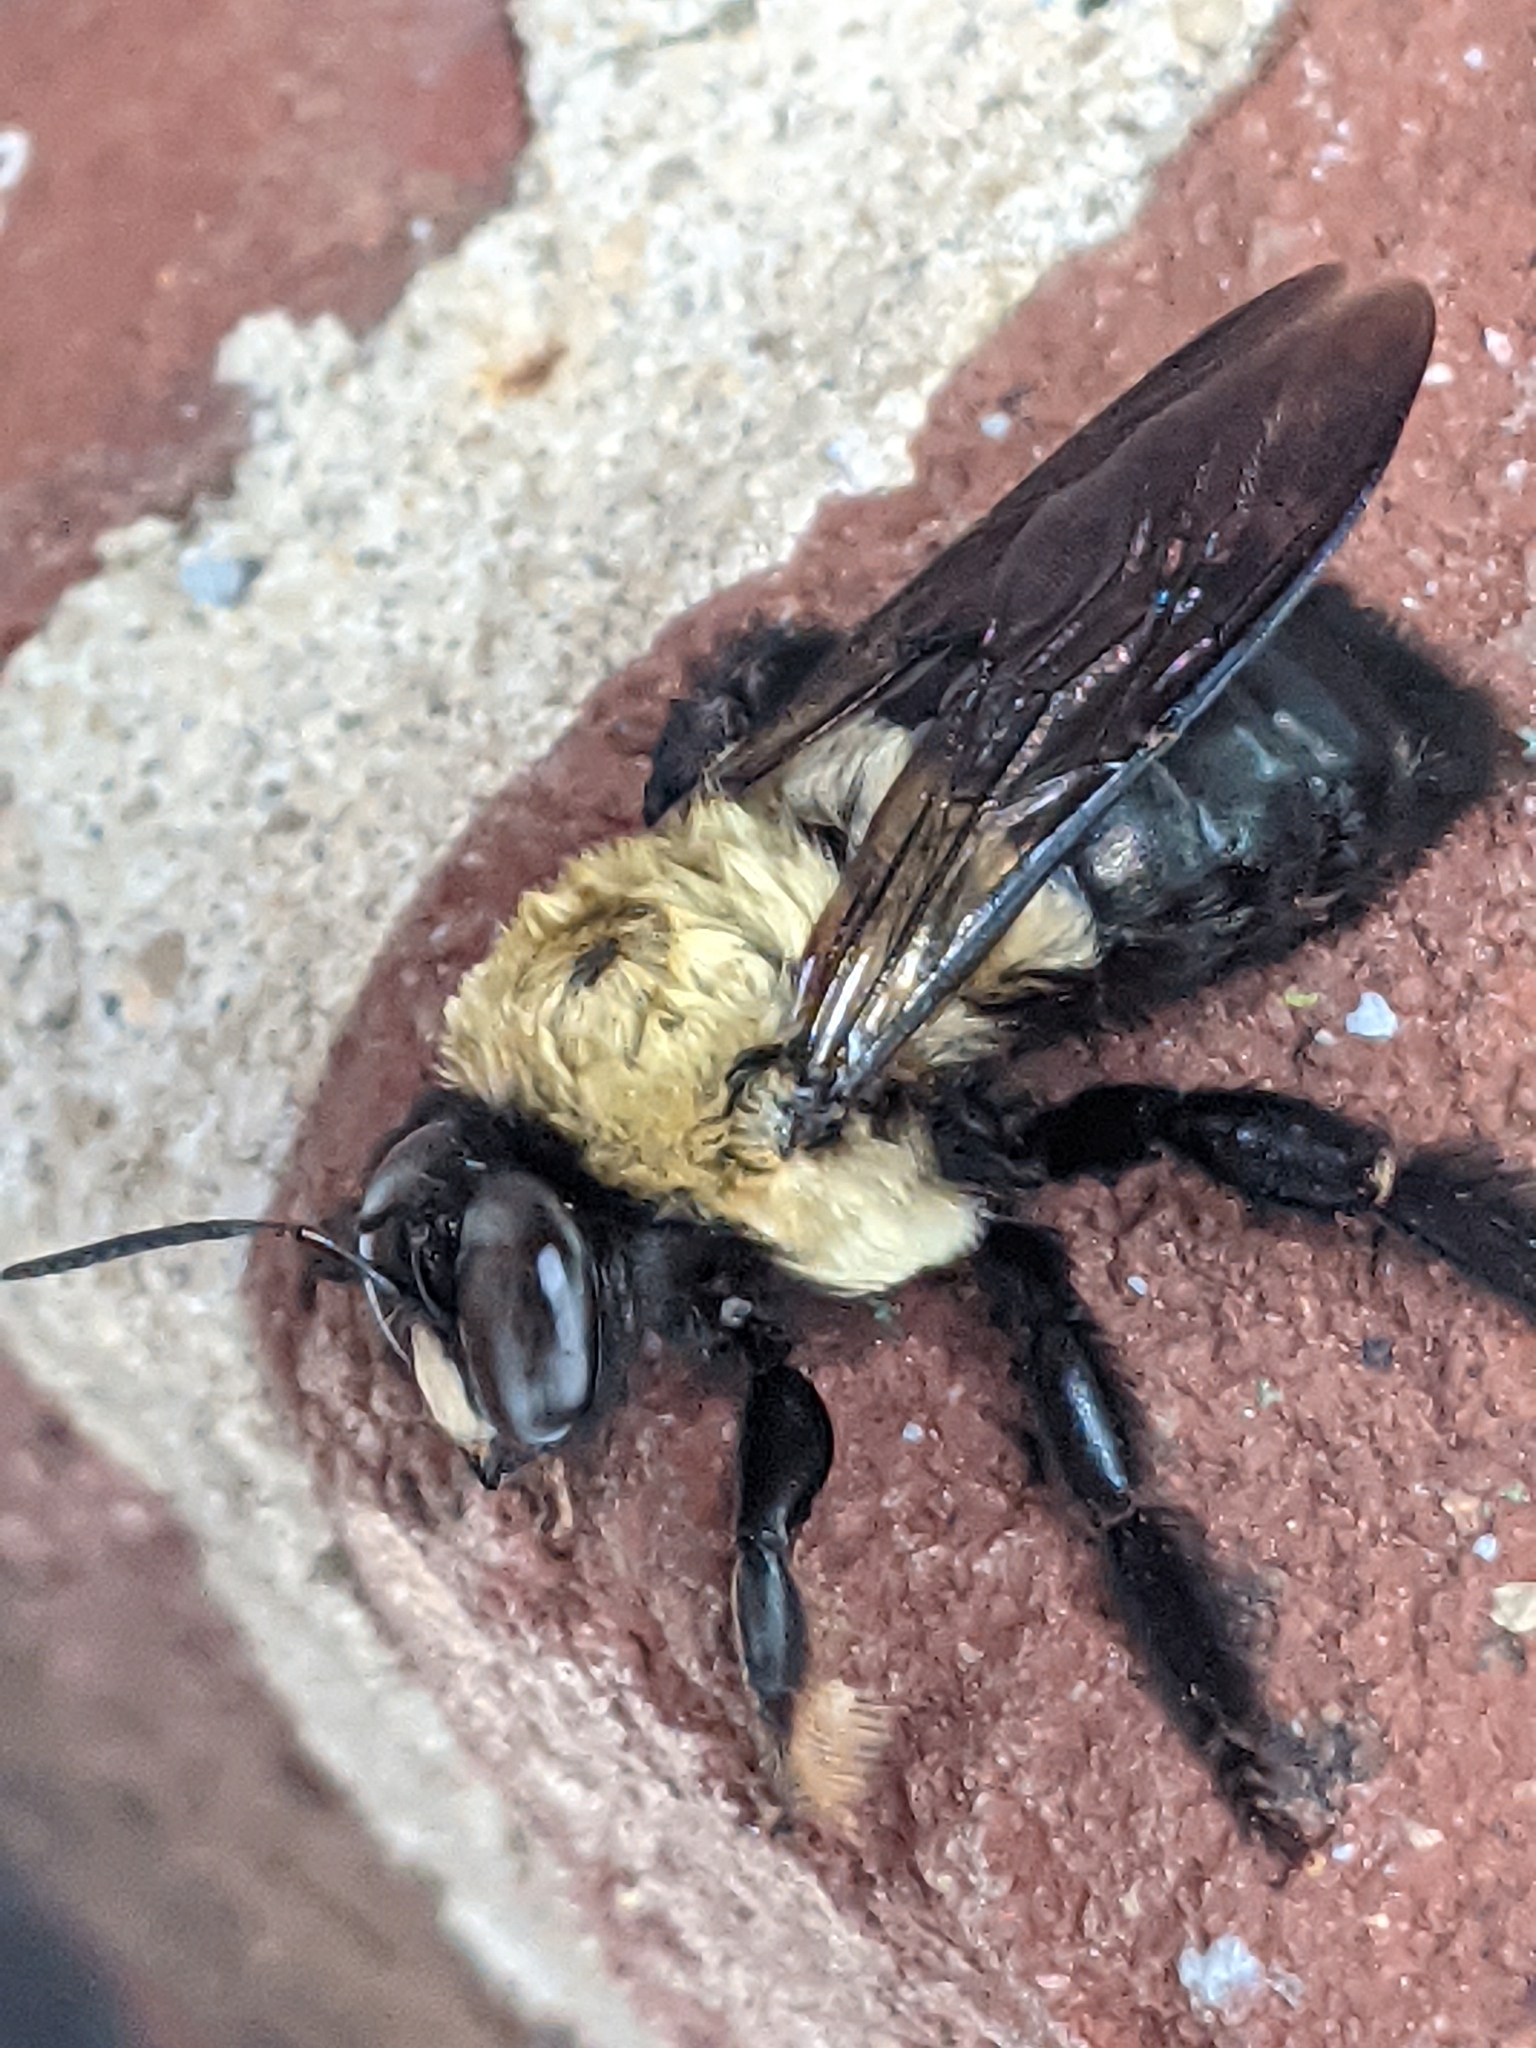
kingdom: Animalia
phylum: Arthropoda
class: Insecta
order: Hymenoptera
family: Apidae
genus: Xylocopa
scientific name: Xylocopa virginica
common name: Carpenter bee
